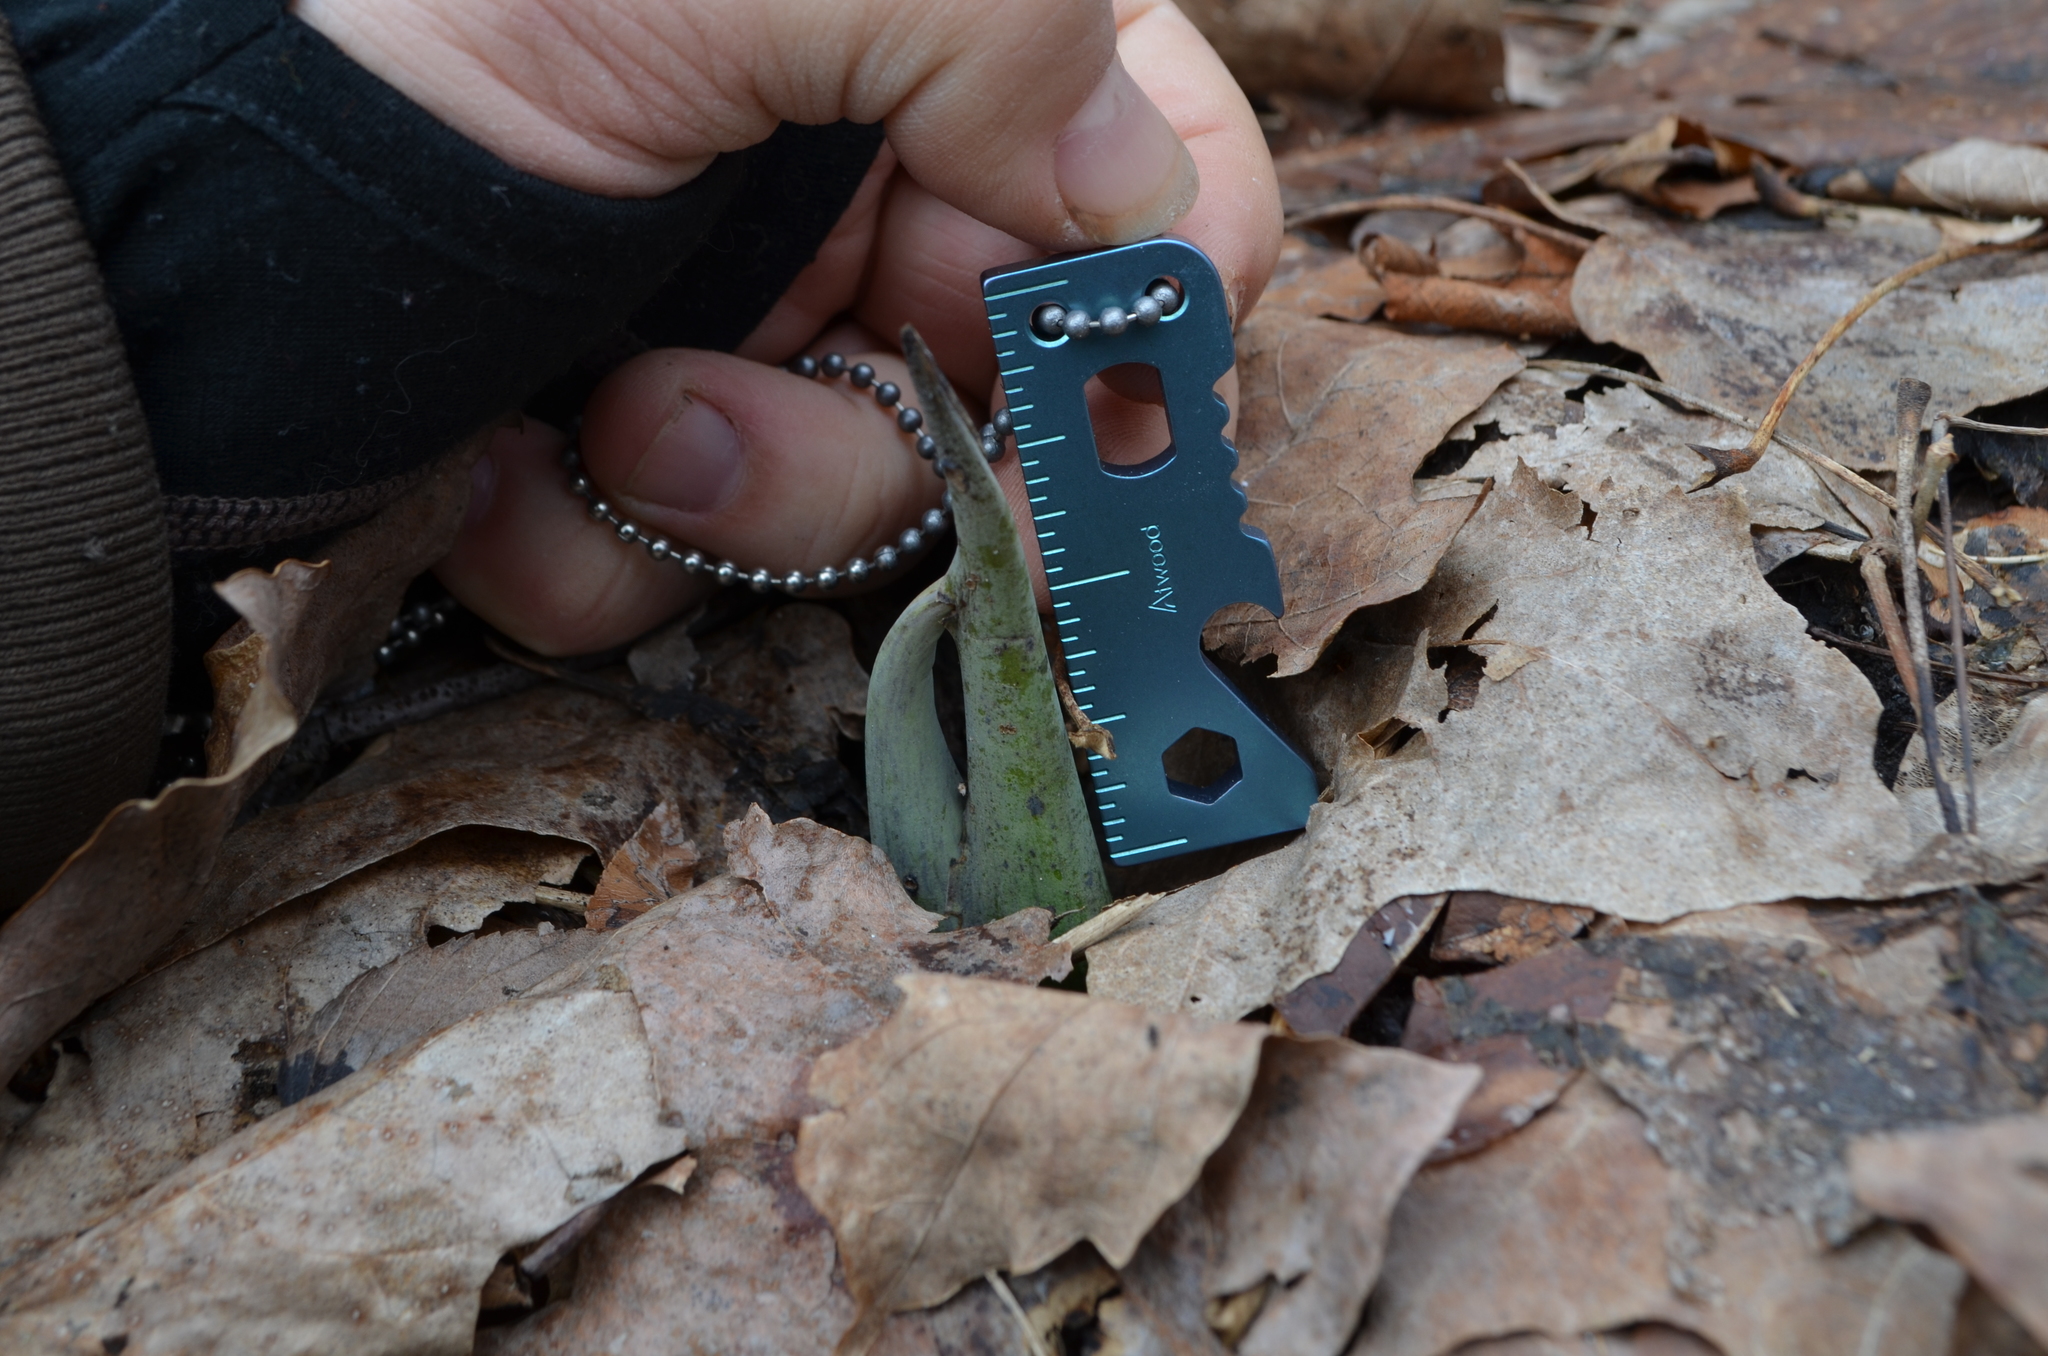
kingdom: Plantae
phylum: Tracheophyta
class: Liliopsida
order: Alismatales
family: Araceae
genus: Symplocarpus
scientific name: Symplocarpus foetidus
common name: Eastern skunk cabbage
